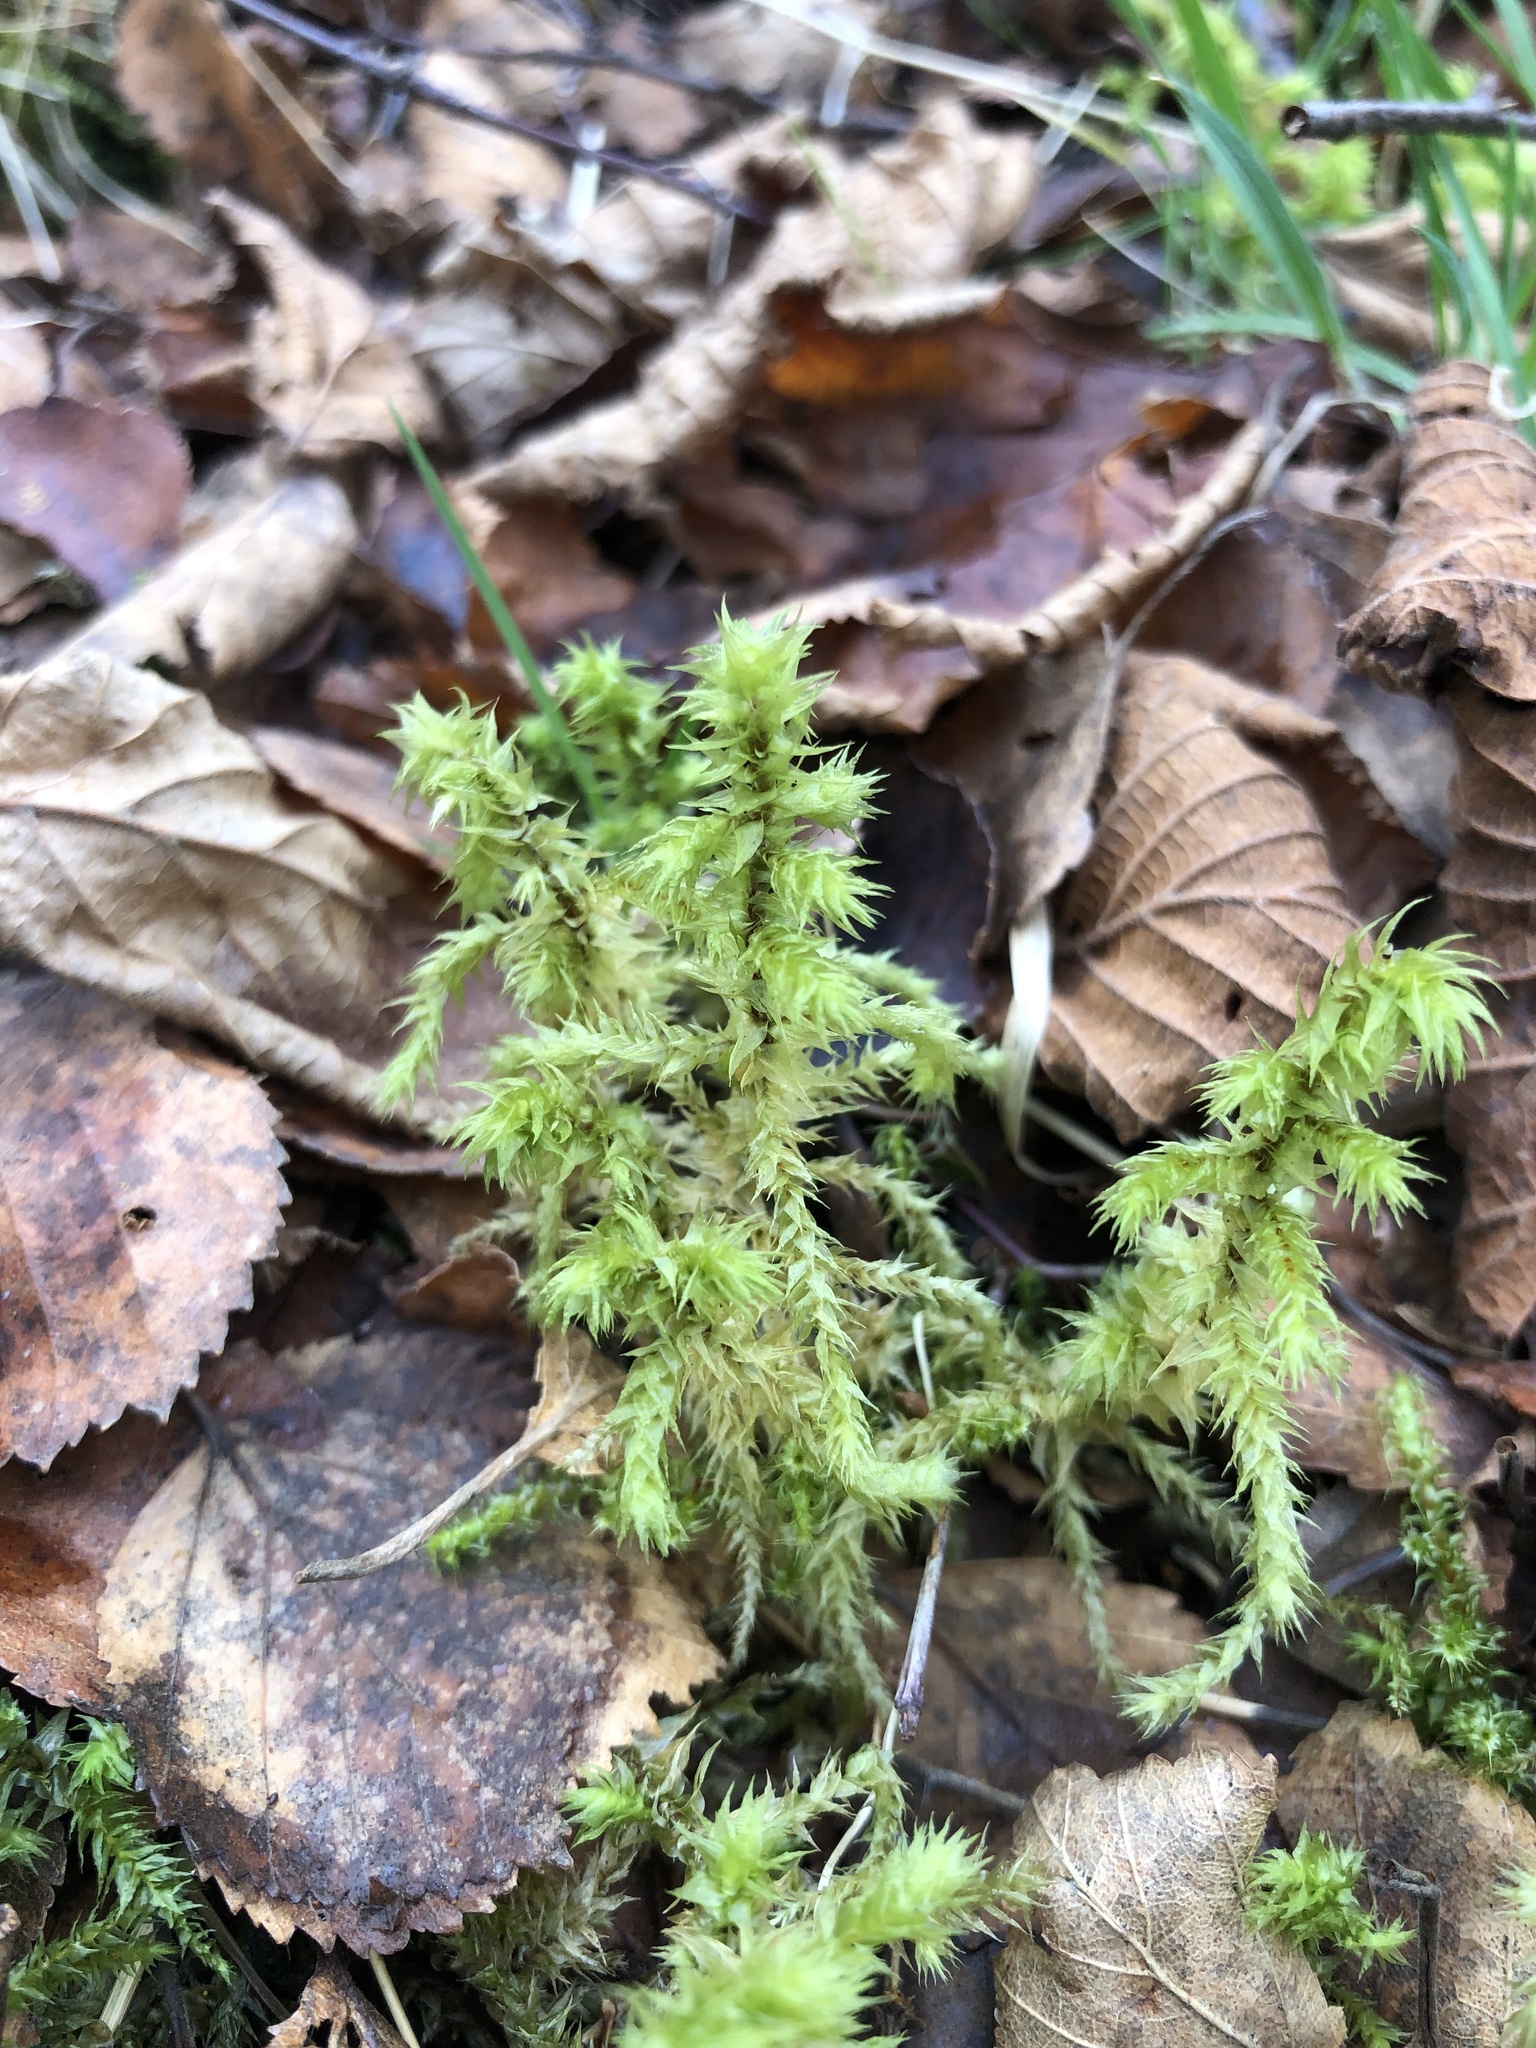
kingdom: Plantae
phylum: Bryophyta
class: Bryopsida
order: Hypnales
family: Hylocomiaceae
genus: Hylocomiadelphus
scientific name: Hylocomiadelphus triquetrus
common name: Rough goose neck moss
